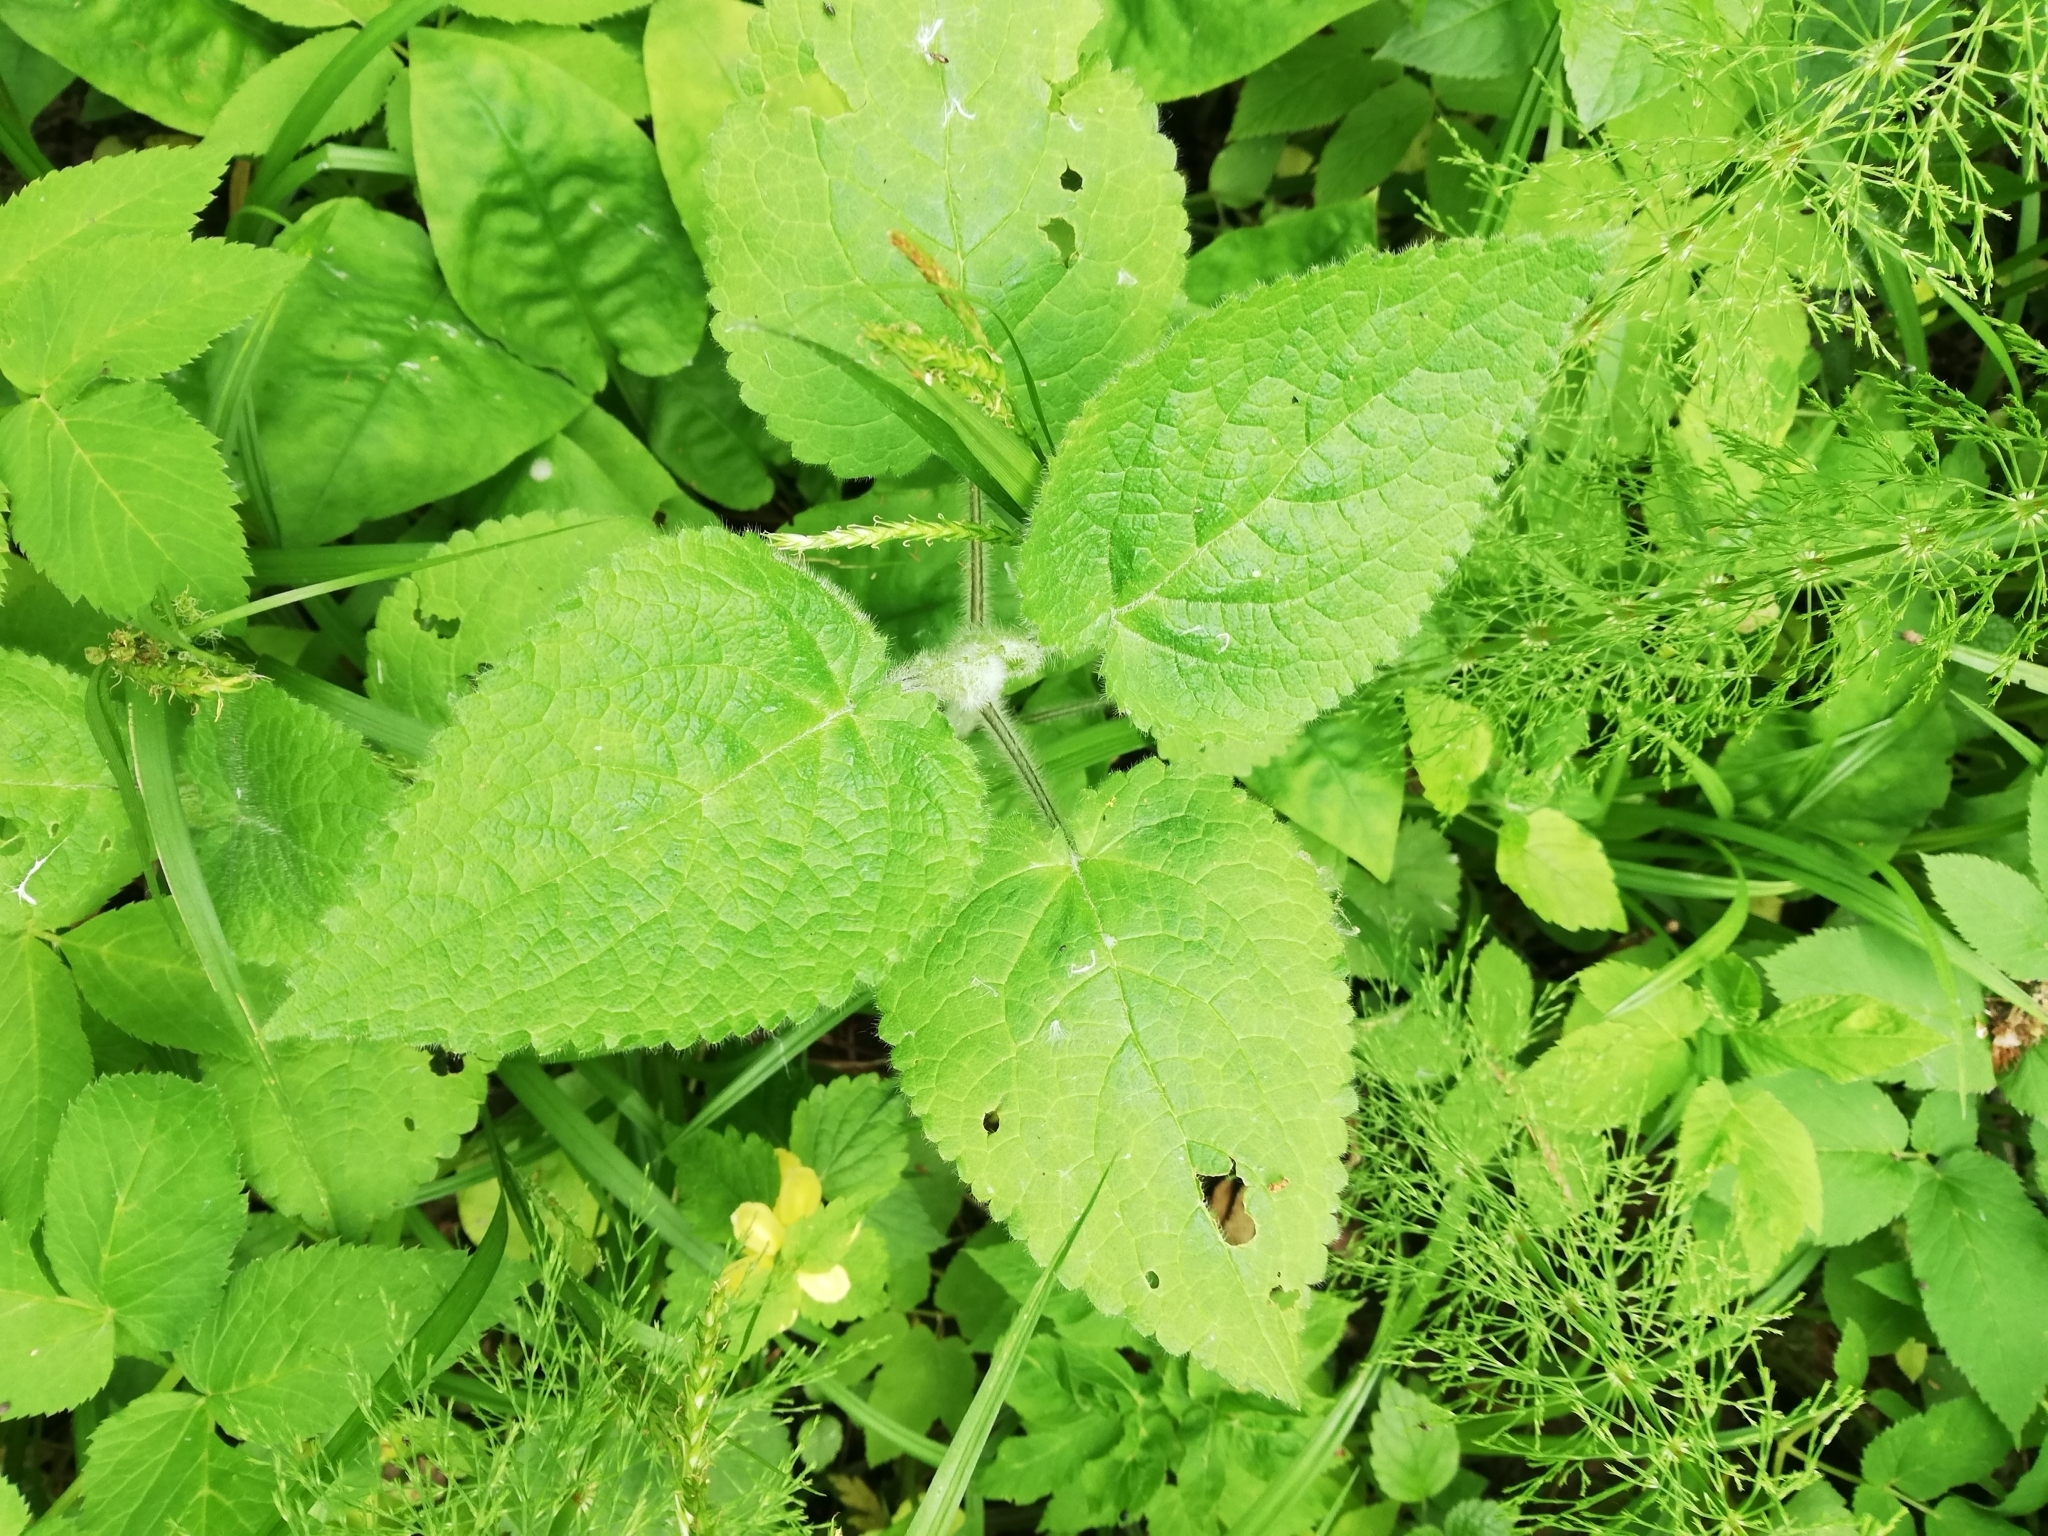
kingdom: Plantae
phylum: Tracheophyta
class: Magnoliopsida
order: Lamiales
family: Lamiaceae
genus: Stachys
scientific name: Stachys sylvatica
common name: Hedge woundwort
